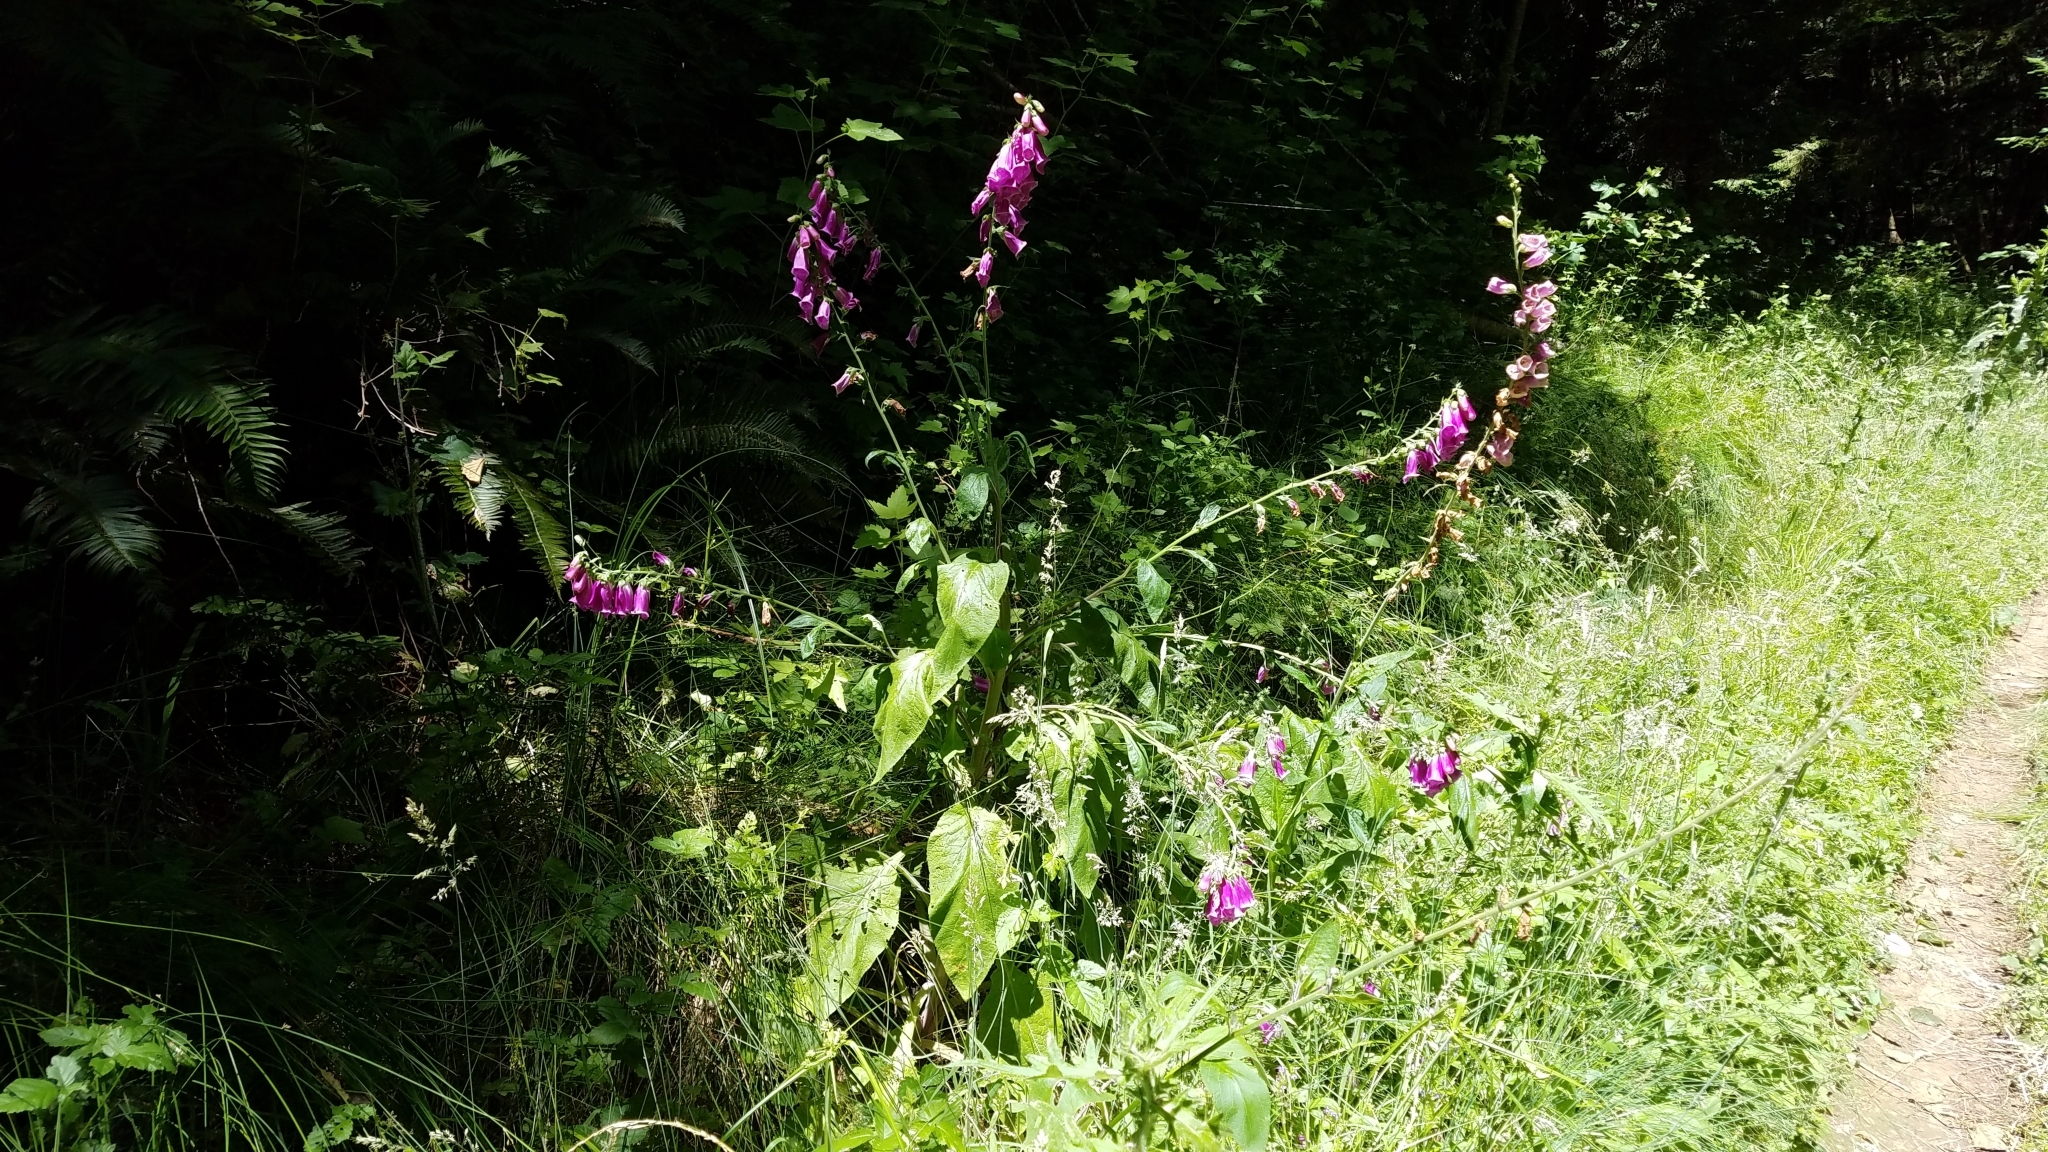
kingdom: Plantae
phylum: Tracheophyta
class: Magnoliopsida
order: Lamiales
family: Plantaginaceae
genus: Digitalis
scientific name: Digitalis purpurea
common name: Foxglove
